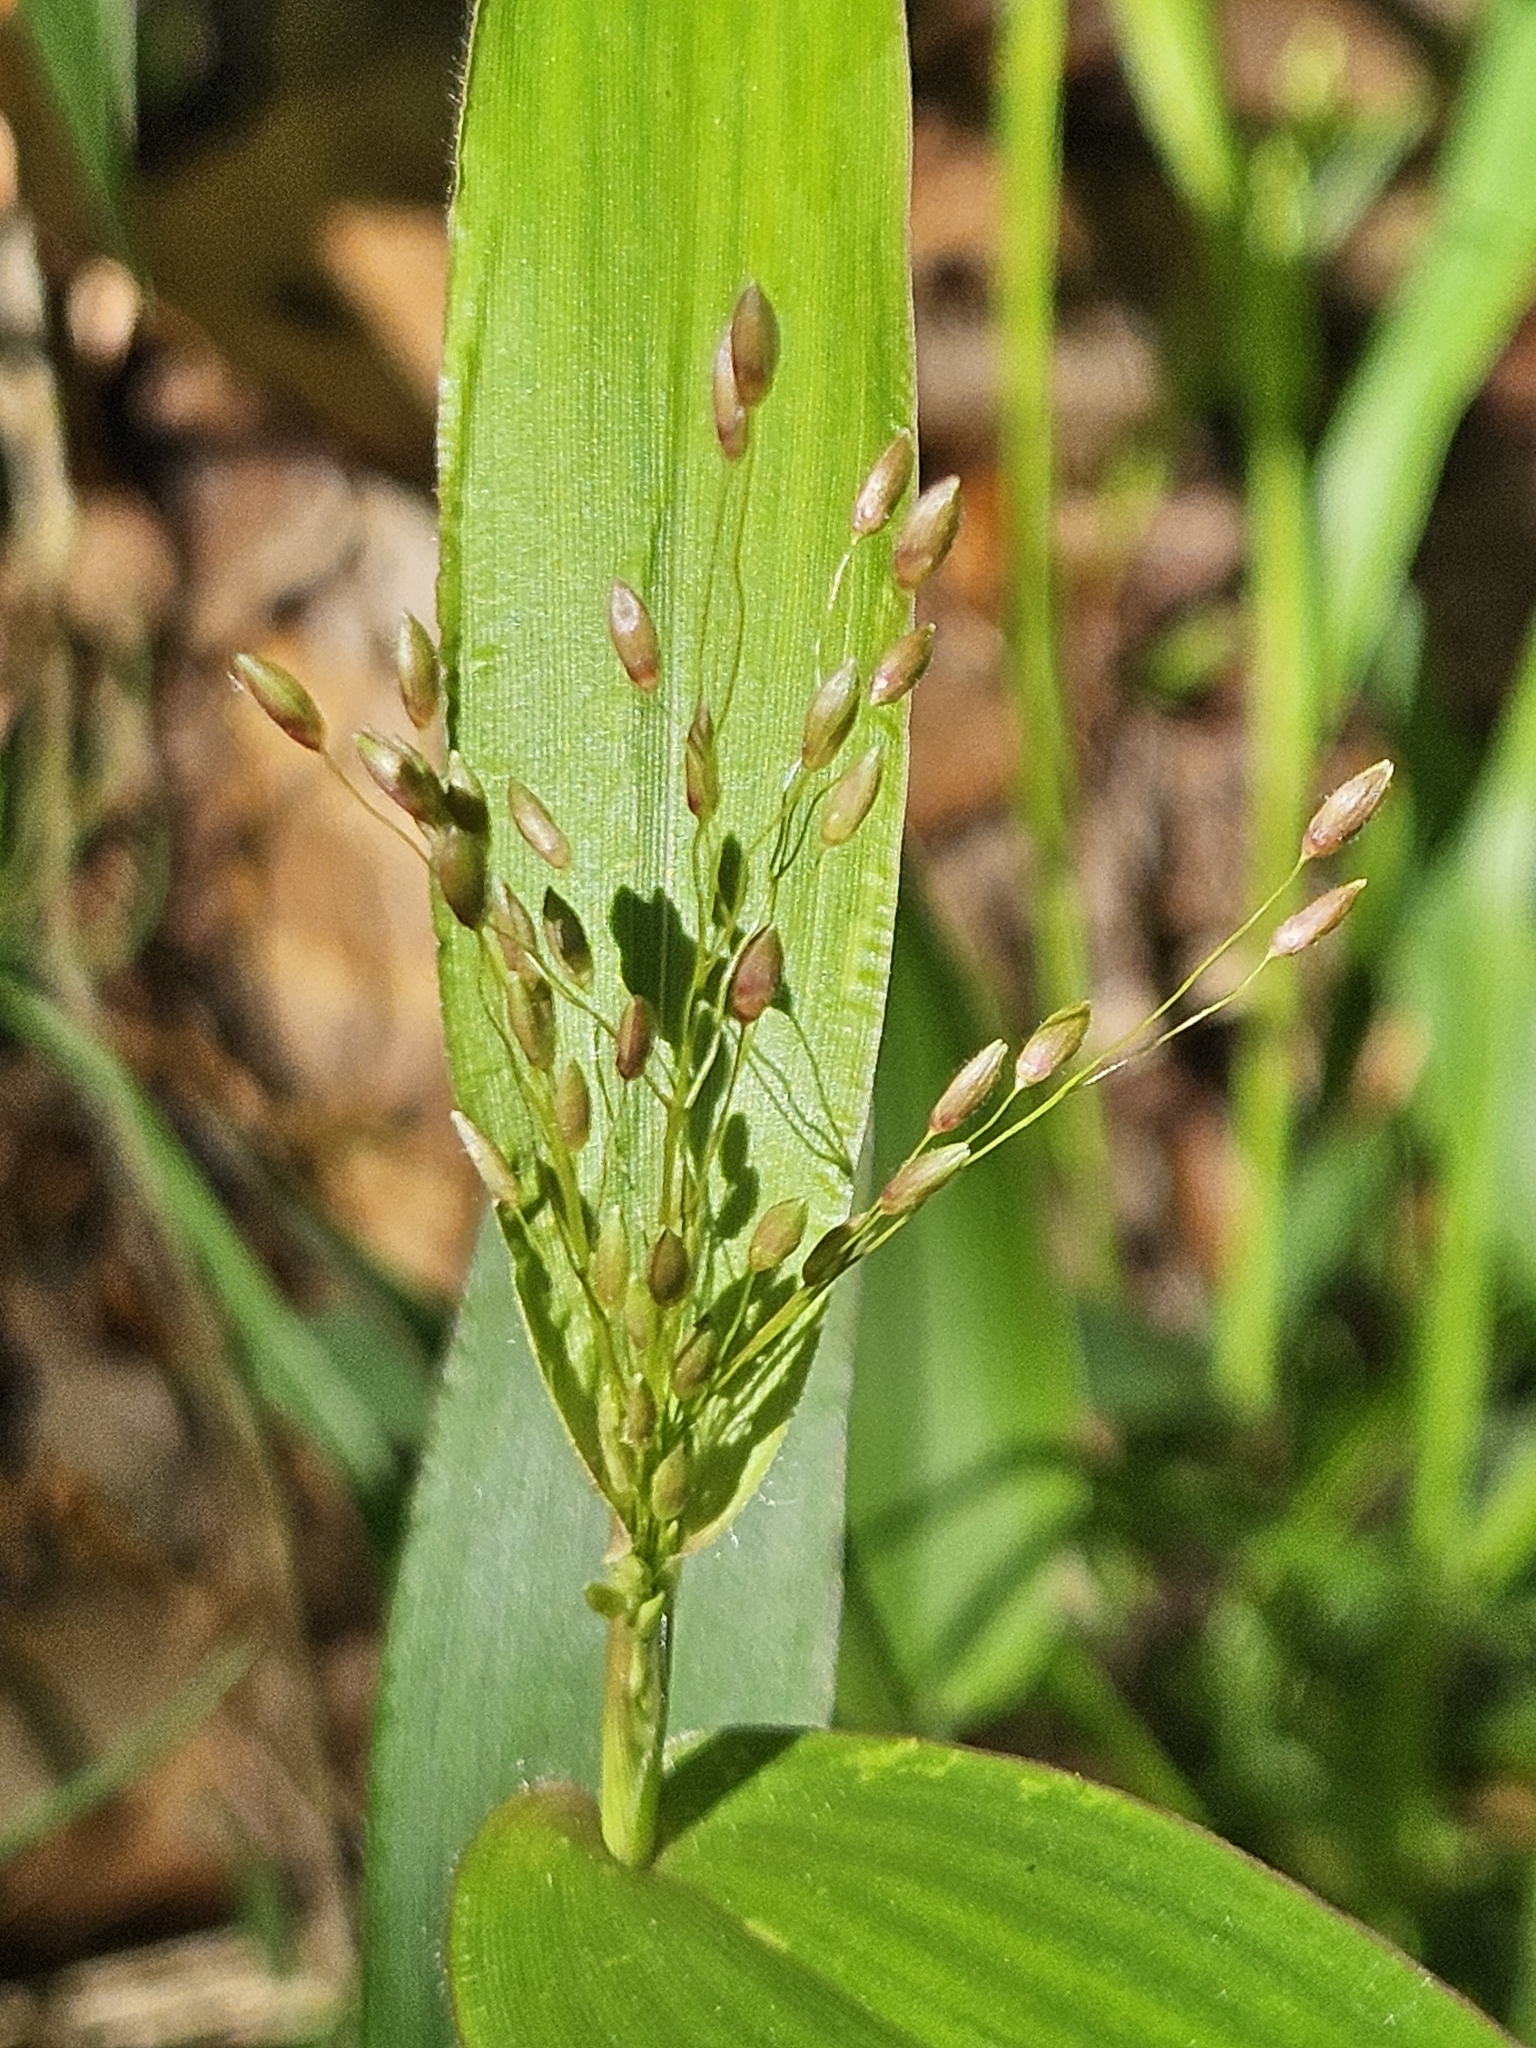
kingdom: Plantae
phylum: Tracheophyta
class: Liliopsida
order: Poales
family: Poaceae
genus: Dichanthelium
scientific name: Dichanthelium commutatum
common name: Variable witchgrass
